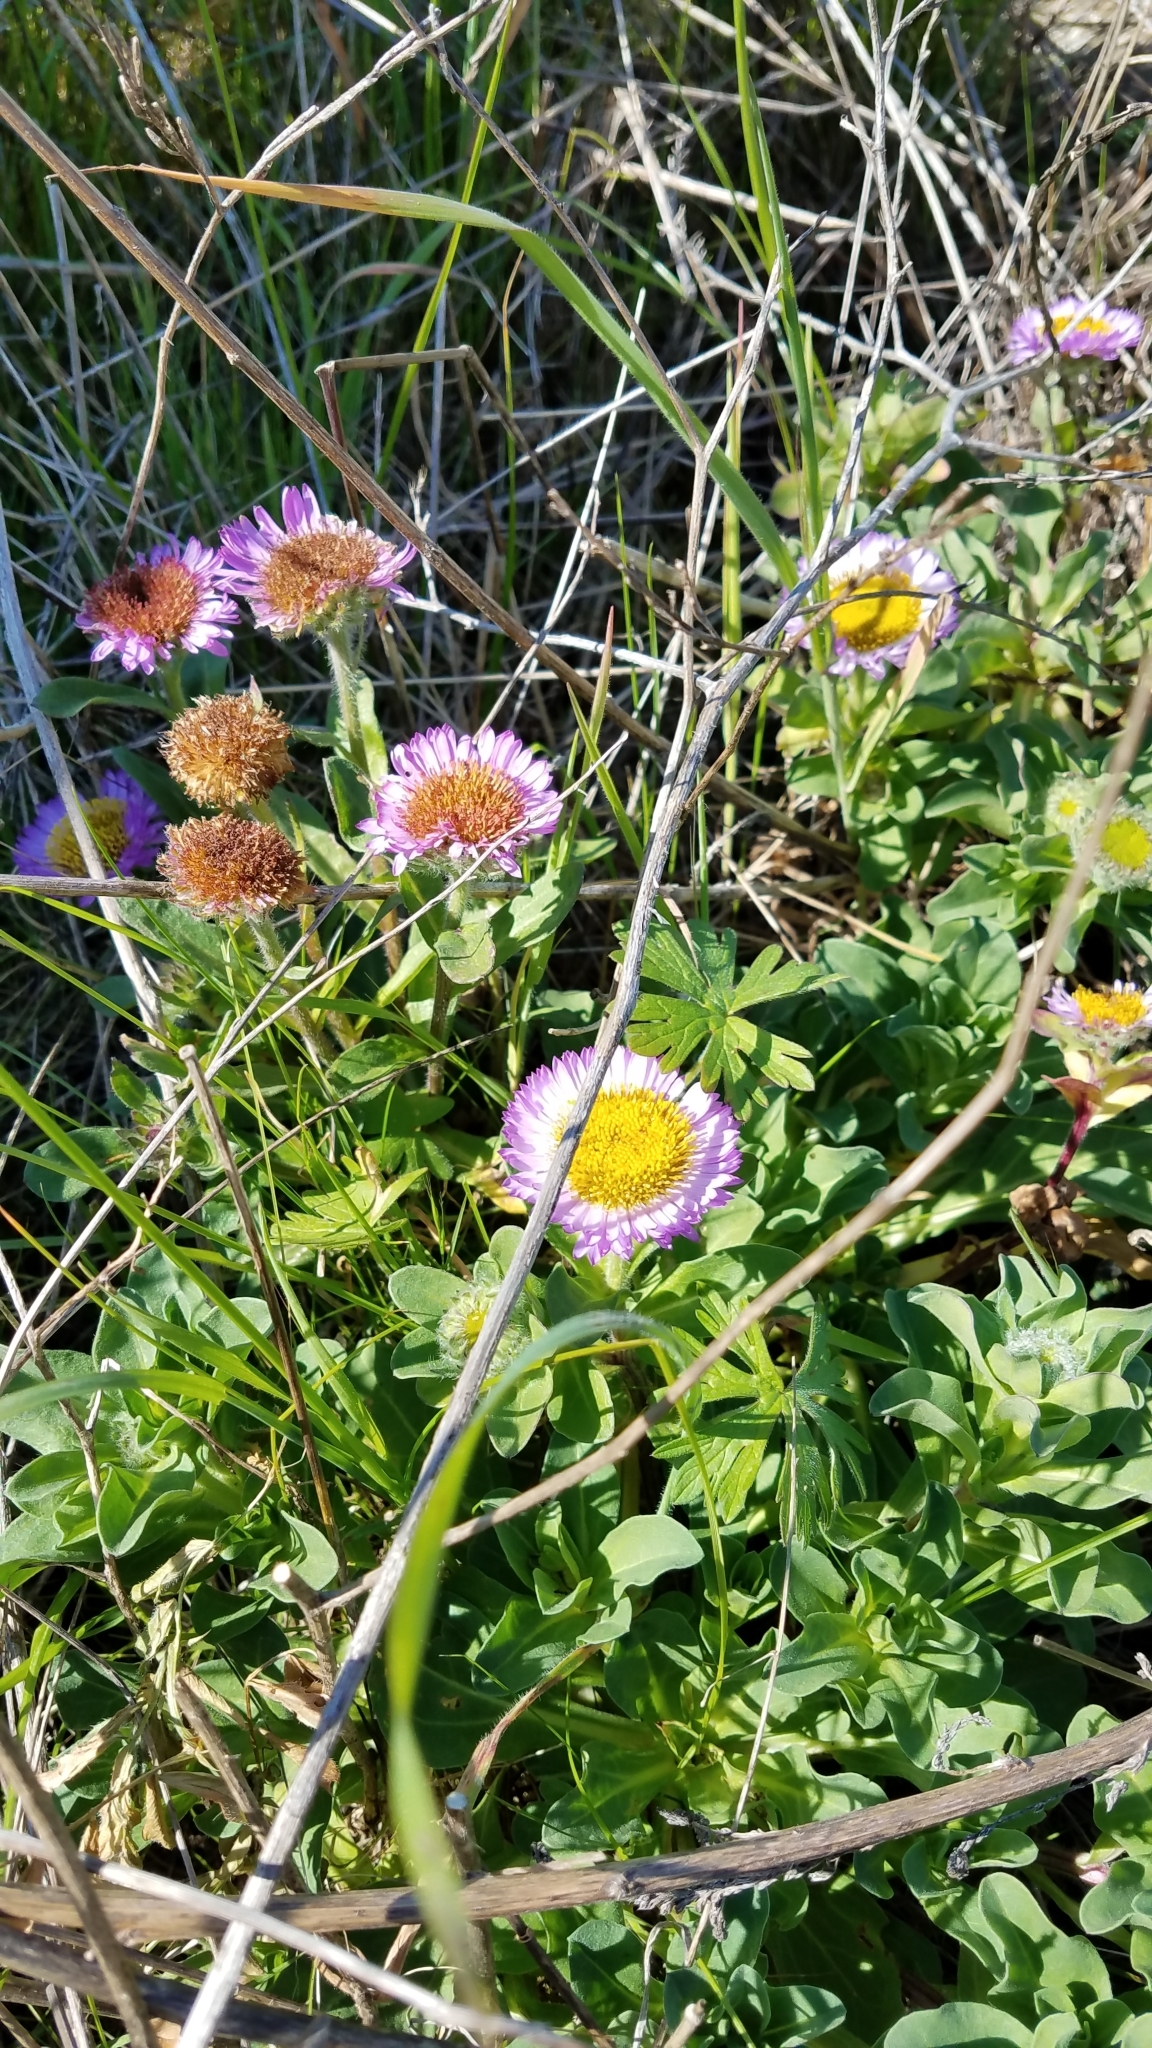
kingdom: Plantae
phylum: Tracheophyta
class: Magnoliopsida
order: Asterales
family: Asteraceae
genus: Erigeron
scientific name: Erigeron glaucus
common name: Seaside daisy
